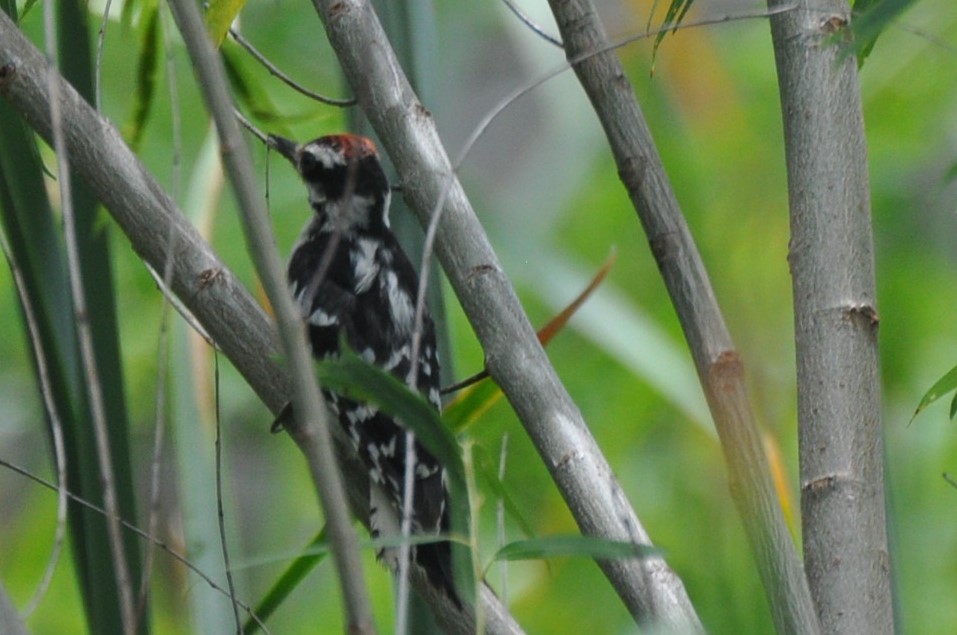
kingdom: Animalia
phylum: Chordata
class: Aves
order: Piciformes
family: Picidae
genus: Dryobates
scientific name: Dryobates pubescens
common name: Downy woodpecker
